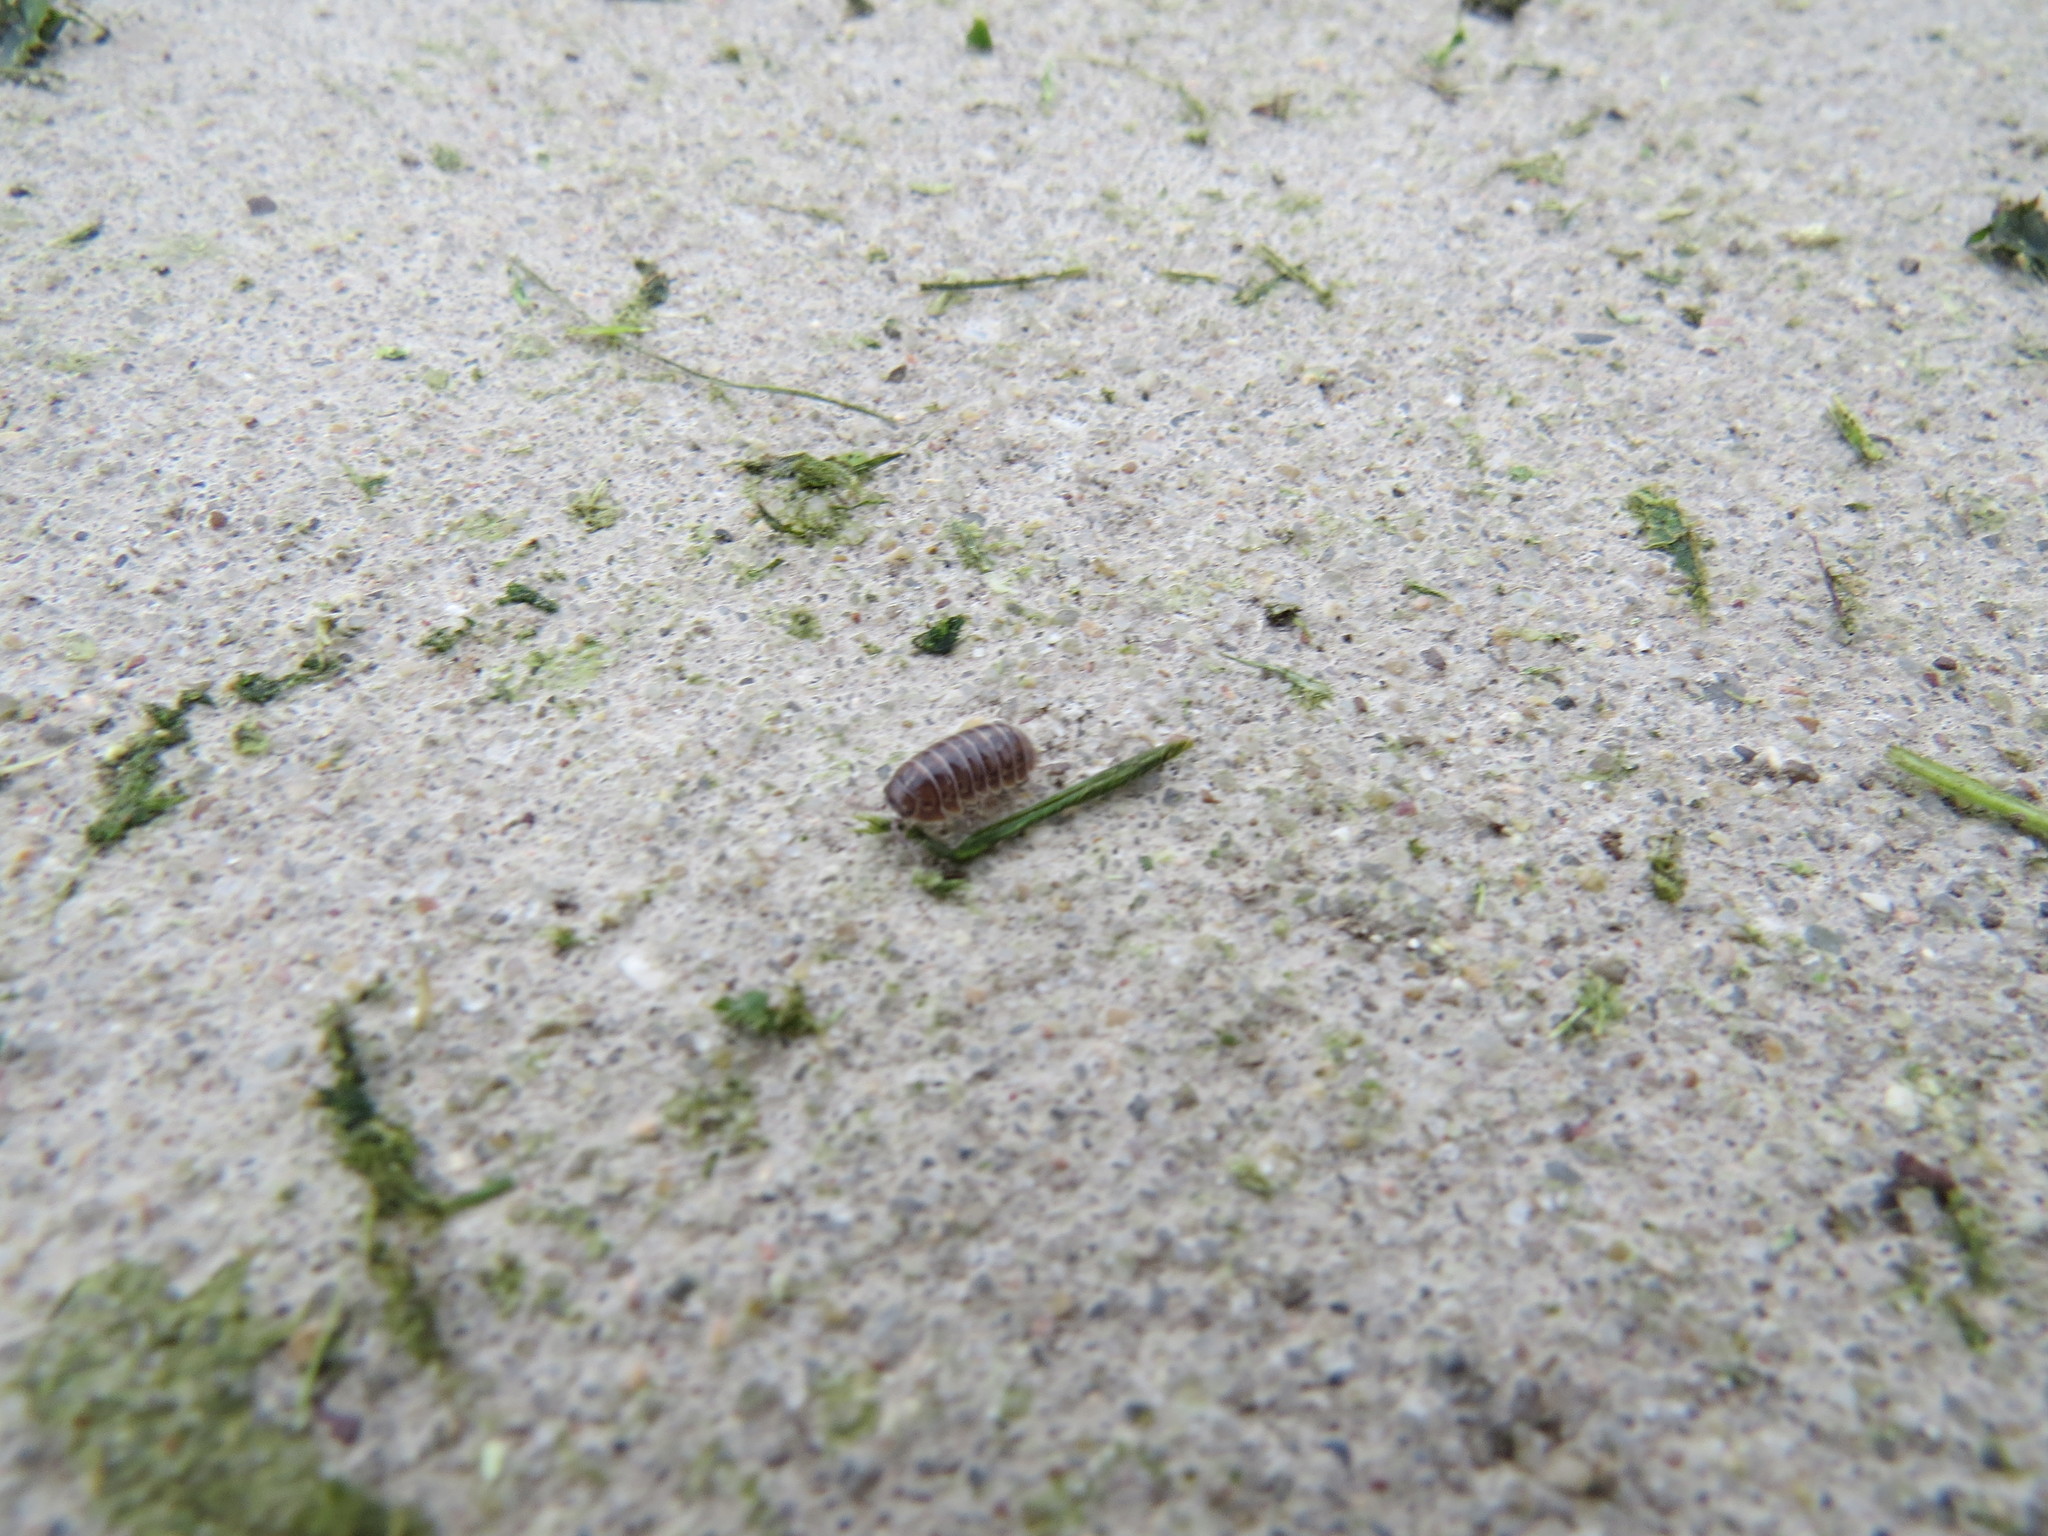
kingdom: Animalia
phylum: Arthropoda
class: Malacostraca
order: Isopoda
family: Armadillidiidae
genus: Armadillidium
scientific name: Armadillidium vulgare
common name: Common pill woodlouse
